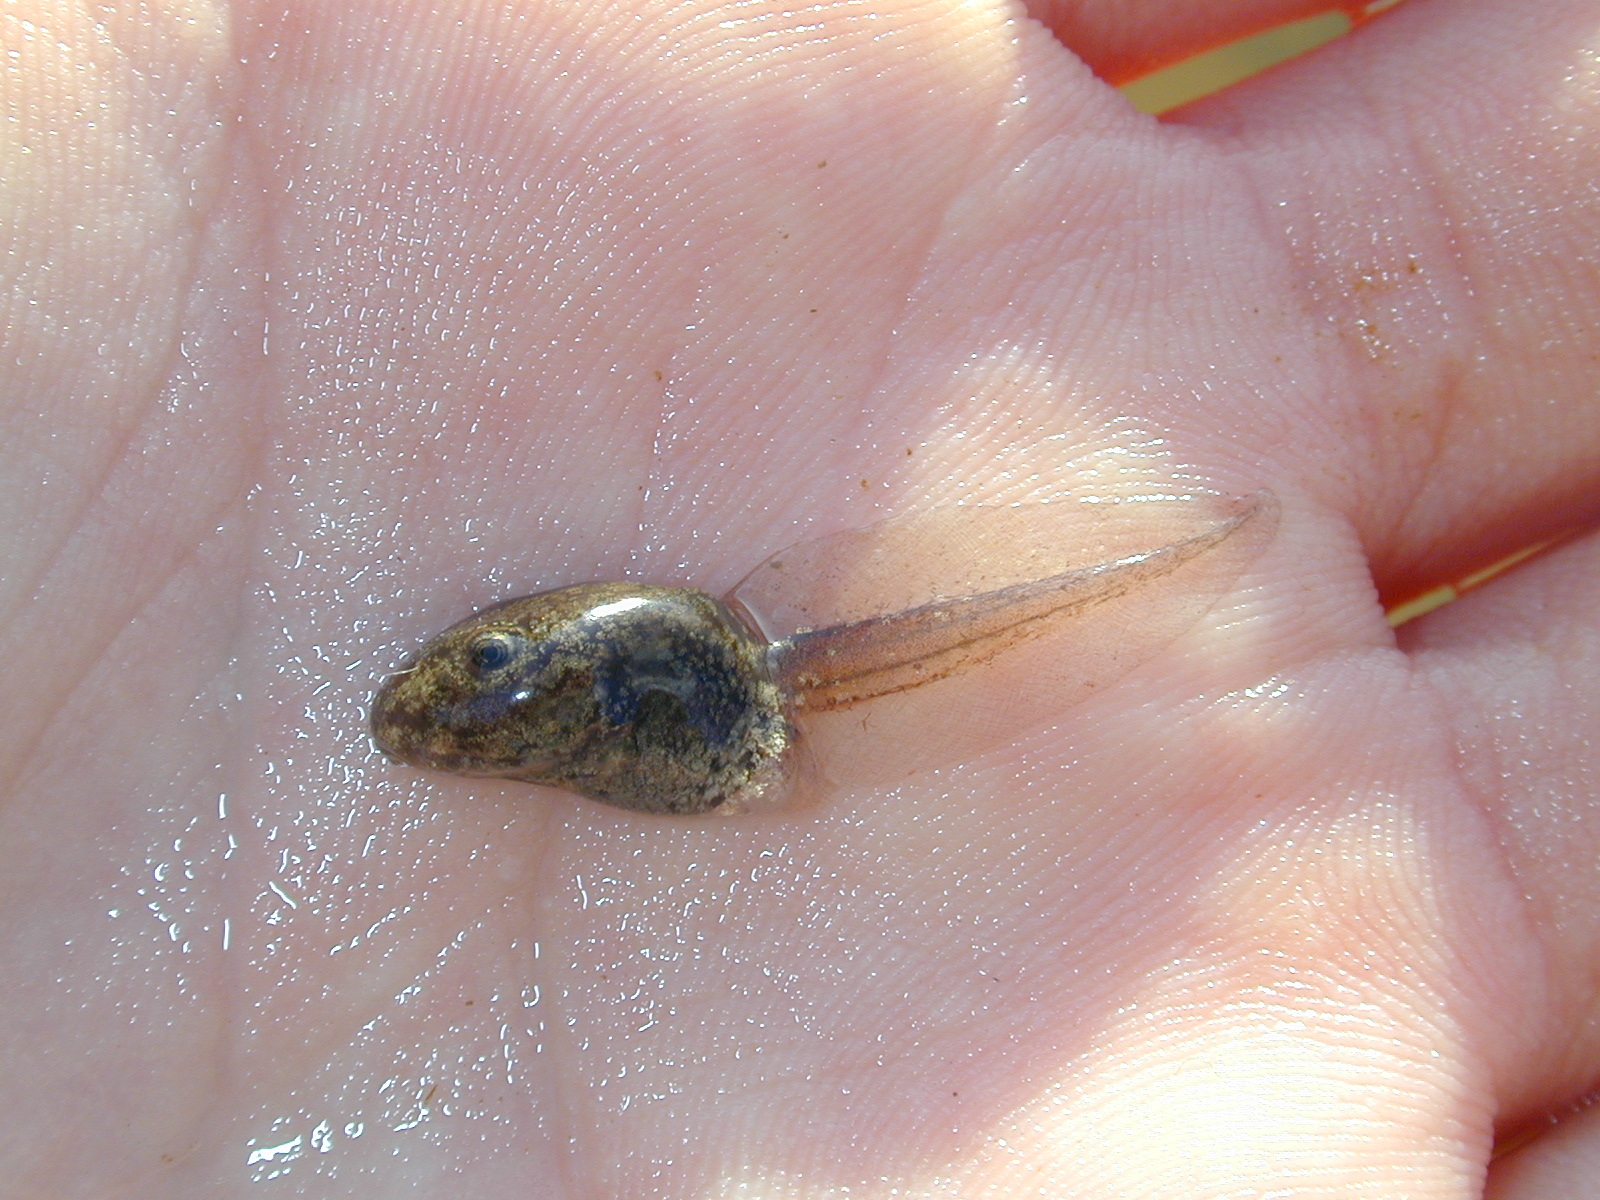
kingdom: Animalia
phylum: Chordata
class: Amphibia
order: Anura
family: Pelodytidae
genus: Pelodytes
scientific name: Pelodytes punctatus
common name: Parsley frog
